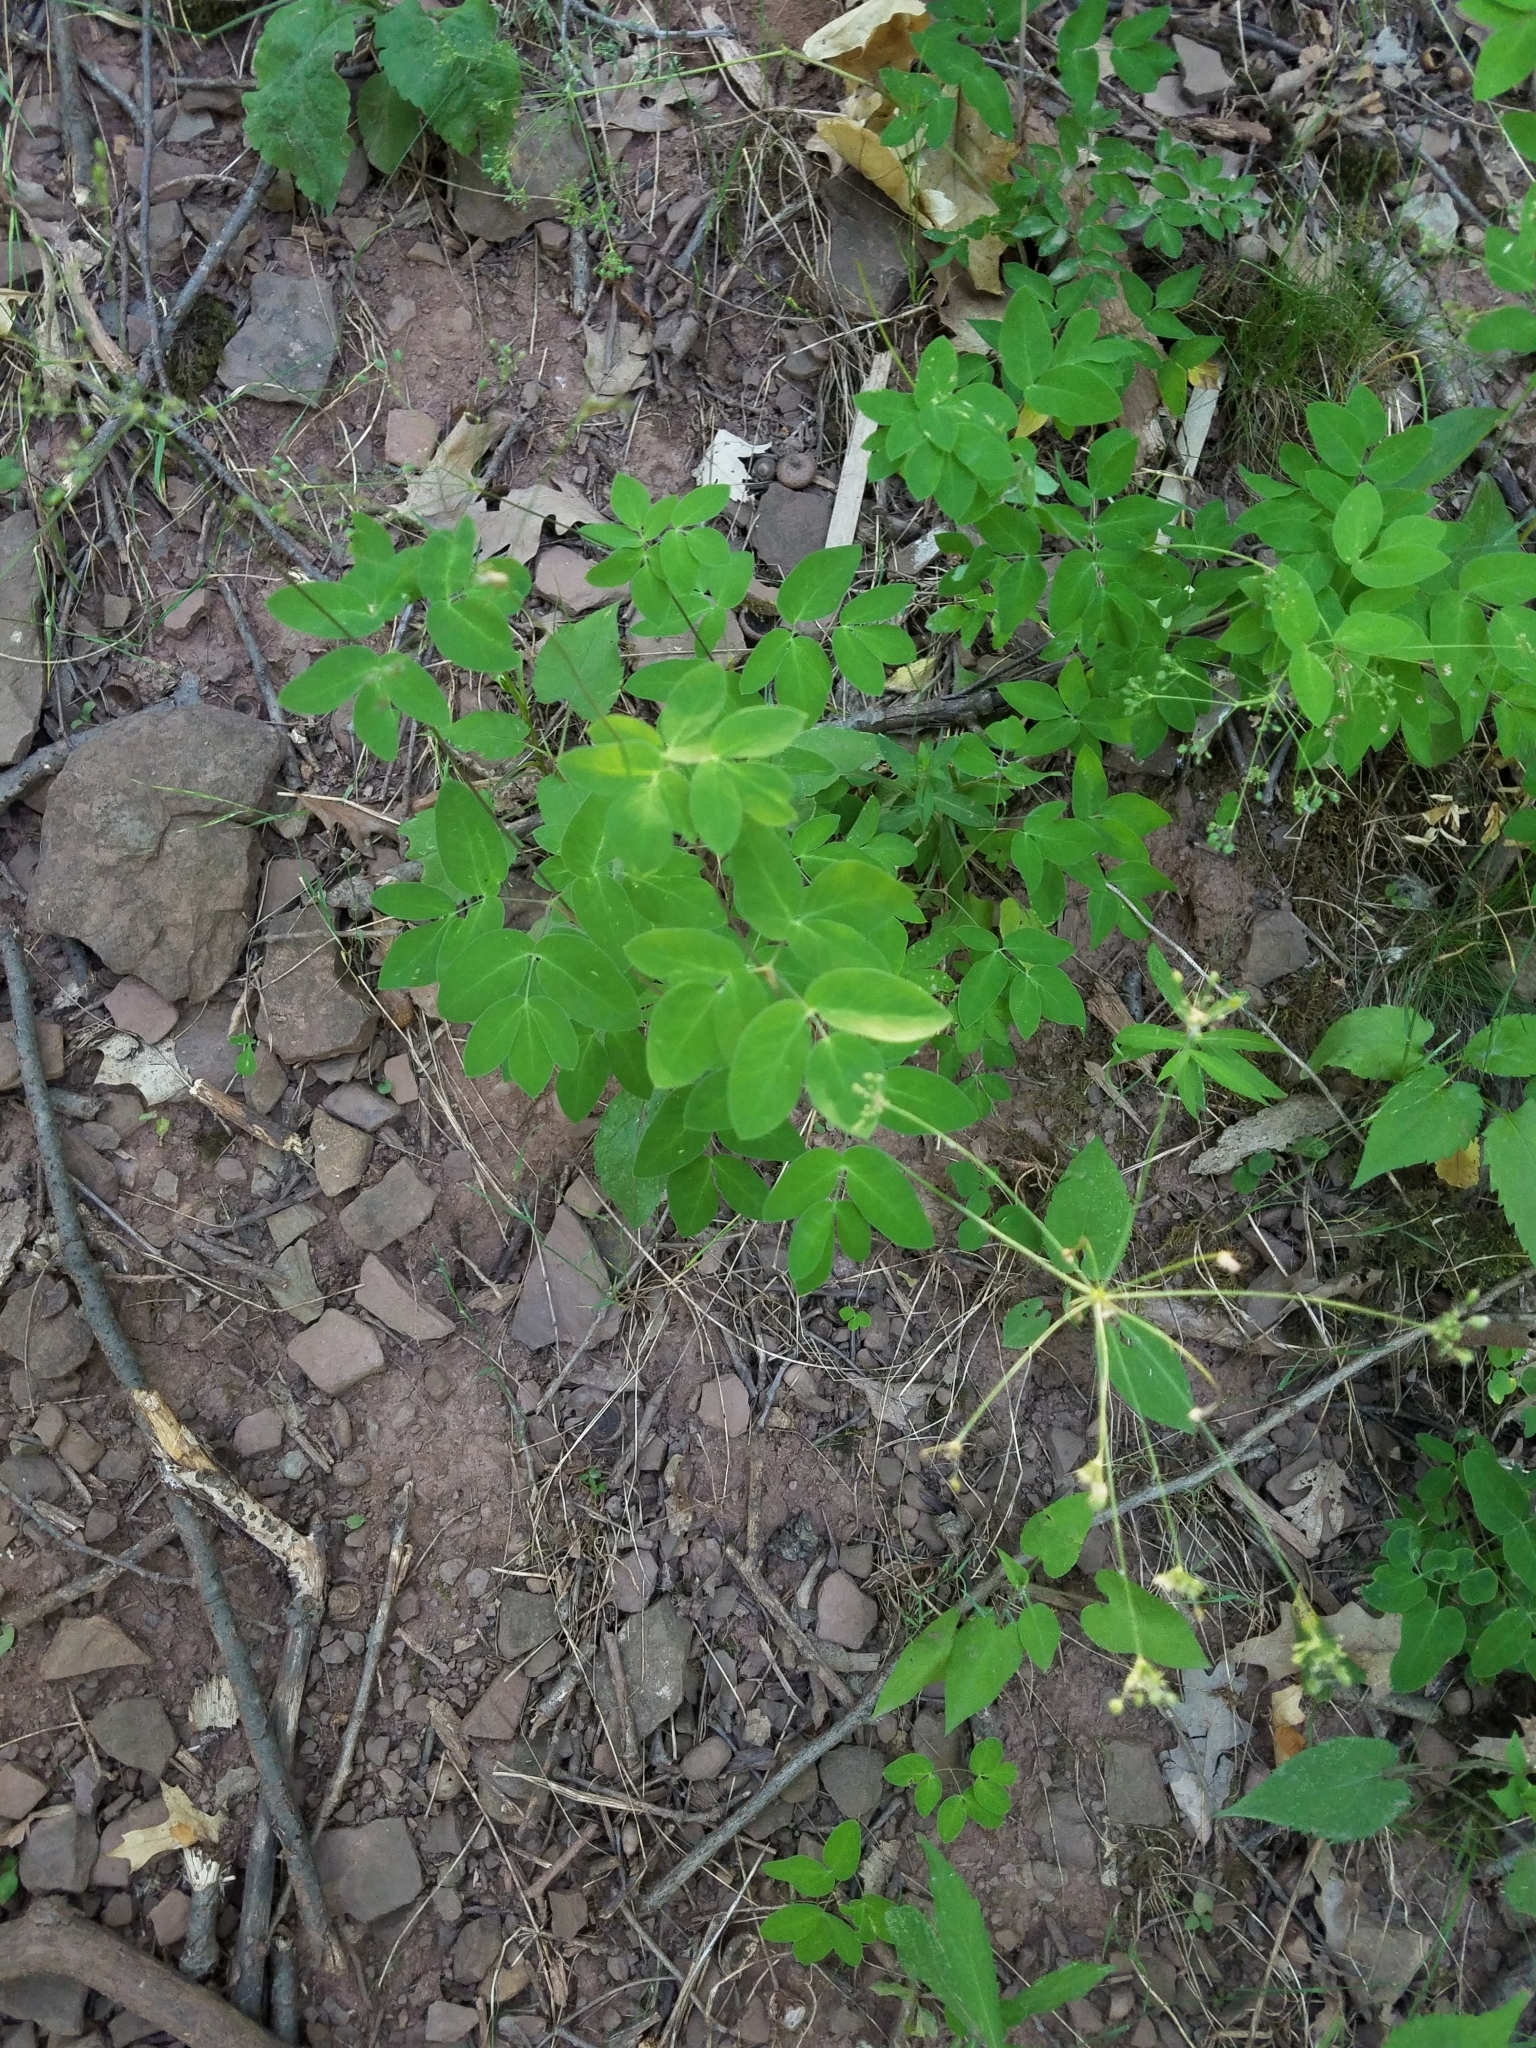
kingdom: Plantae
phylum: Tracheophyta
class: Magnoliopsida
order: Apiales
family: Apiaceae
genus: Taenidia
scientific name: Taenidia integerrima
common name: Golden alexander
